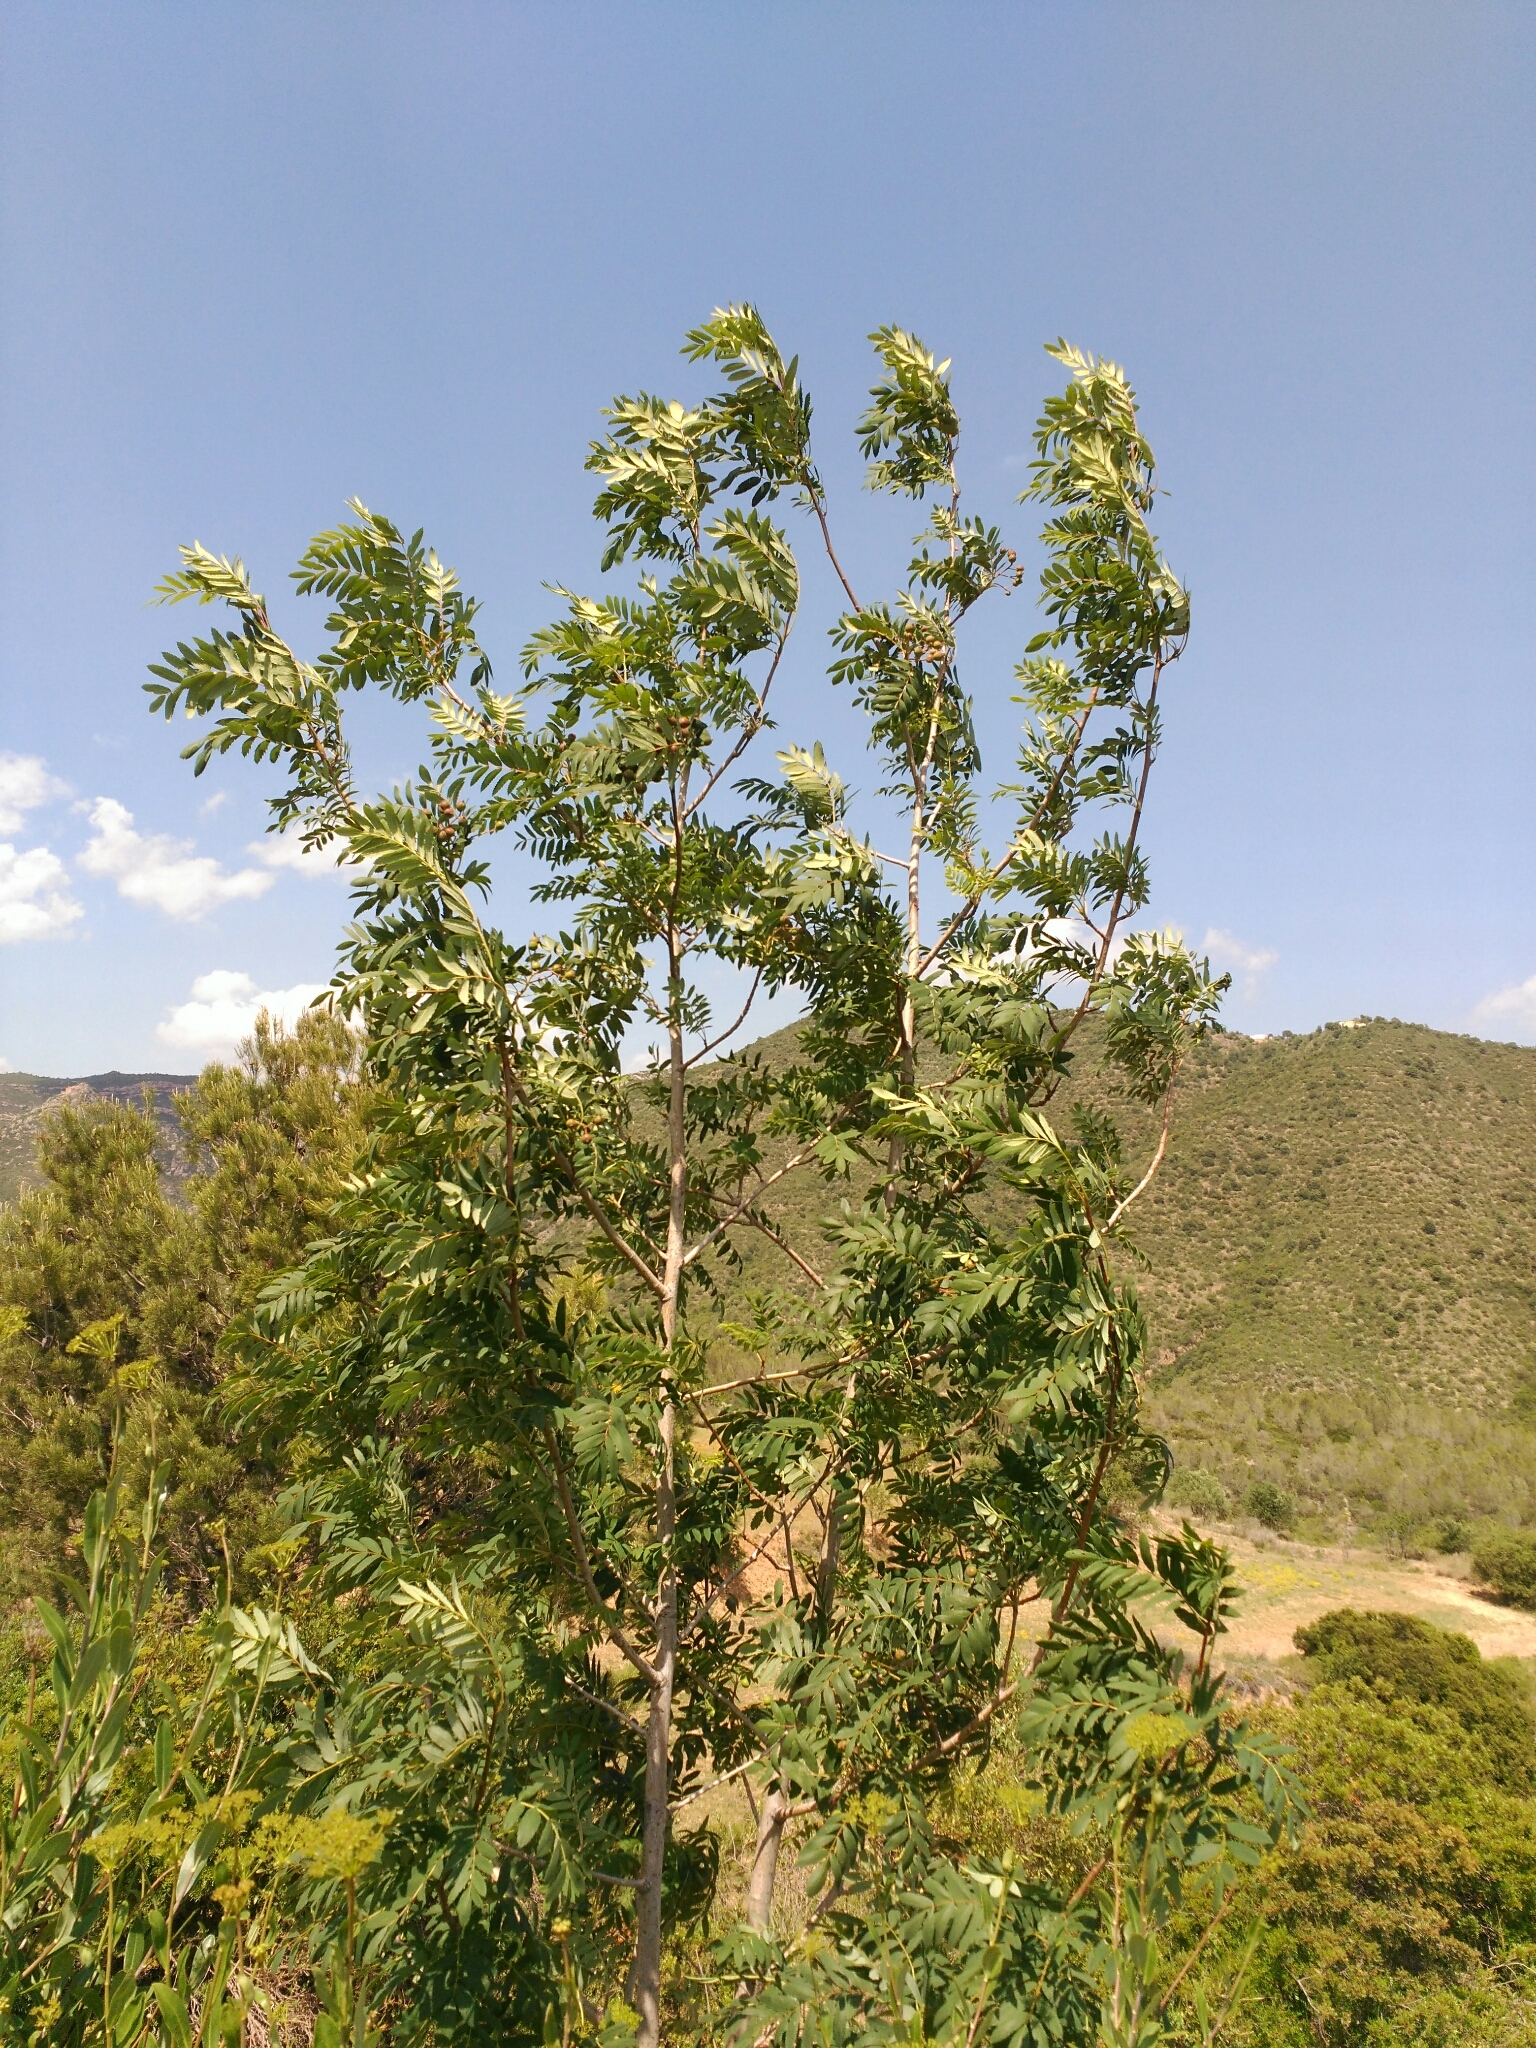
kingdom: Plantae
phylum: Tracheophyta
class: Magnoliopsida
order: Rosales
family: Rosaceae
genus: Cormus
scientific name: Cormus domestica
